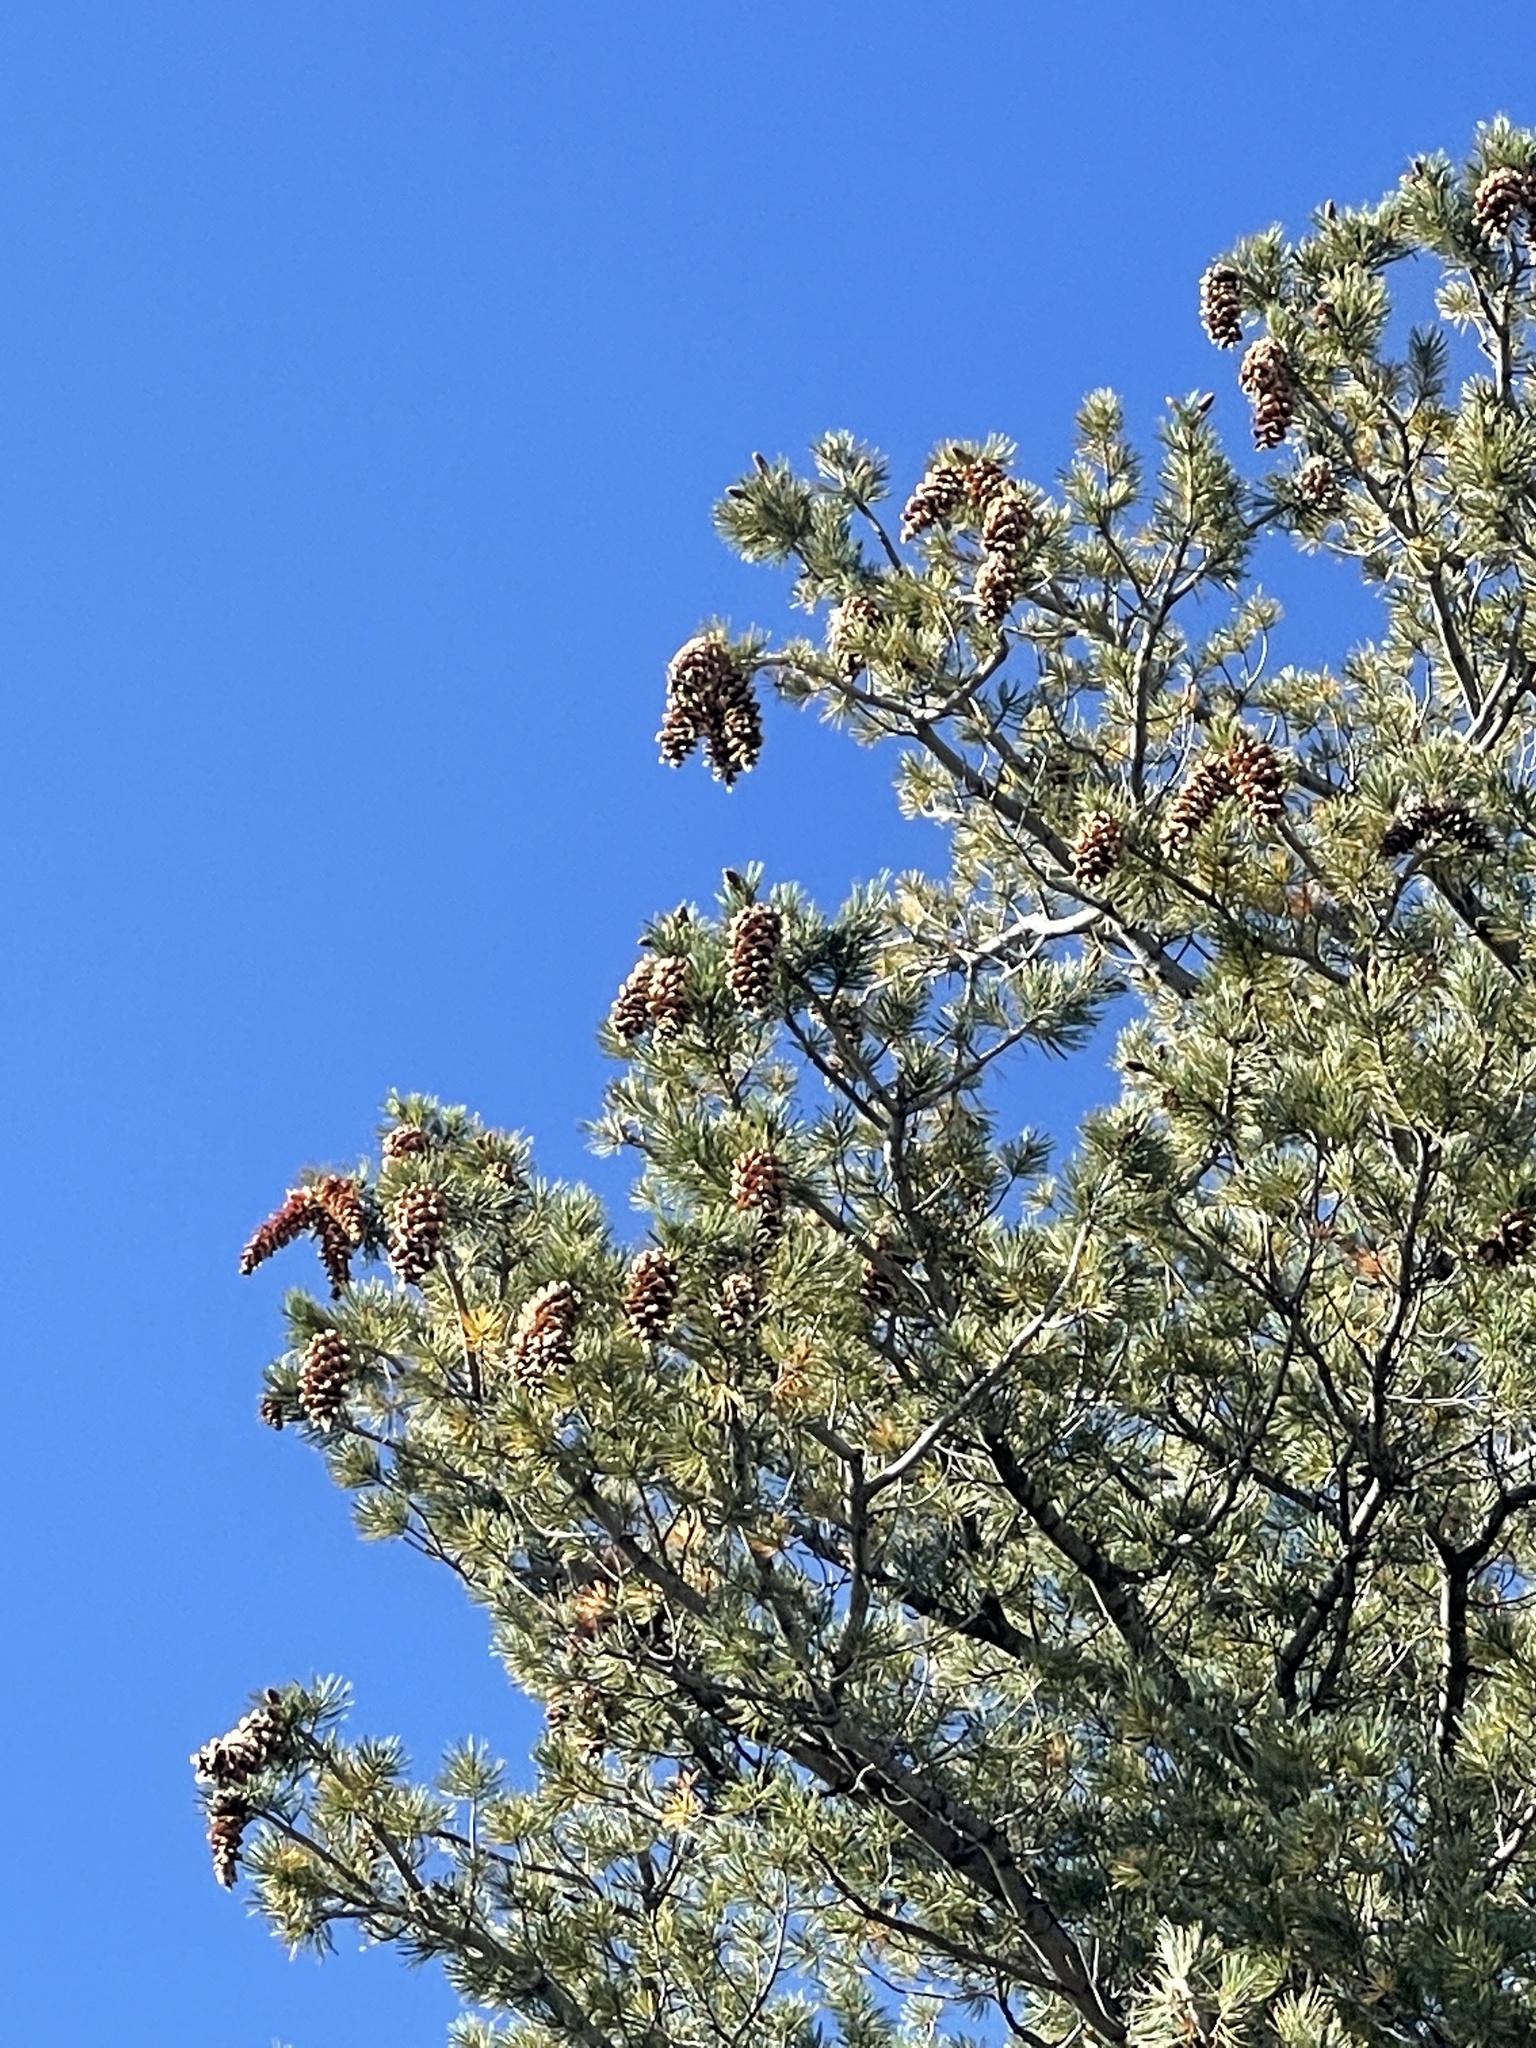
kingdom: Plantae
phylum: Tracheophyta
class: Pinopsida
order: Pinales
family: Pinaceae
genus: Pinus
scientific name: Pinus strobiformis
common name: Southwestern white pine
